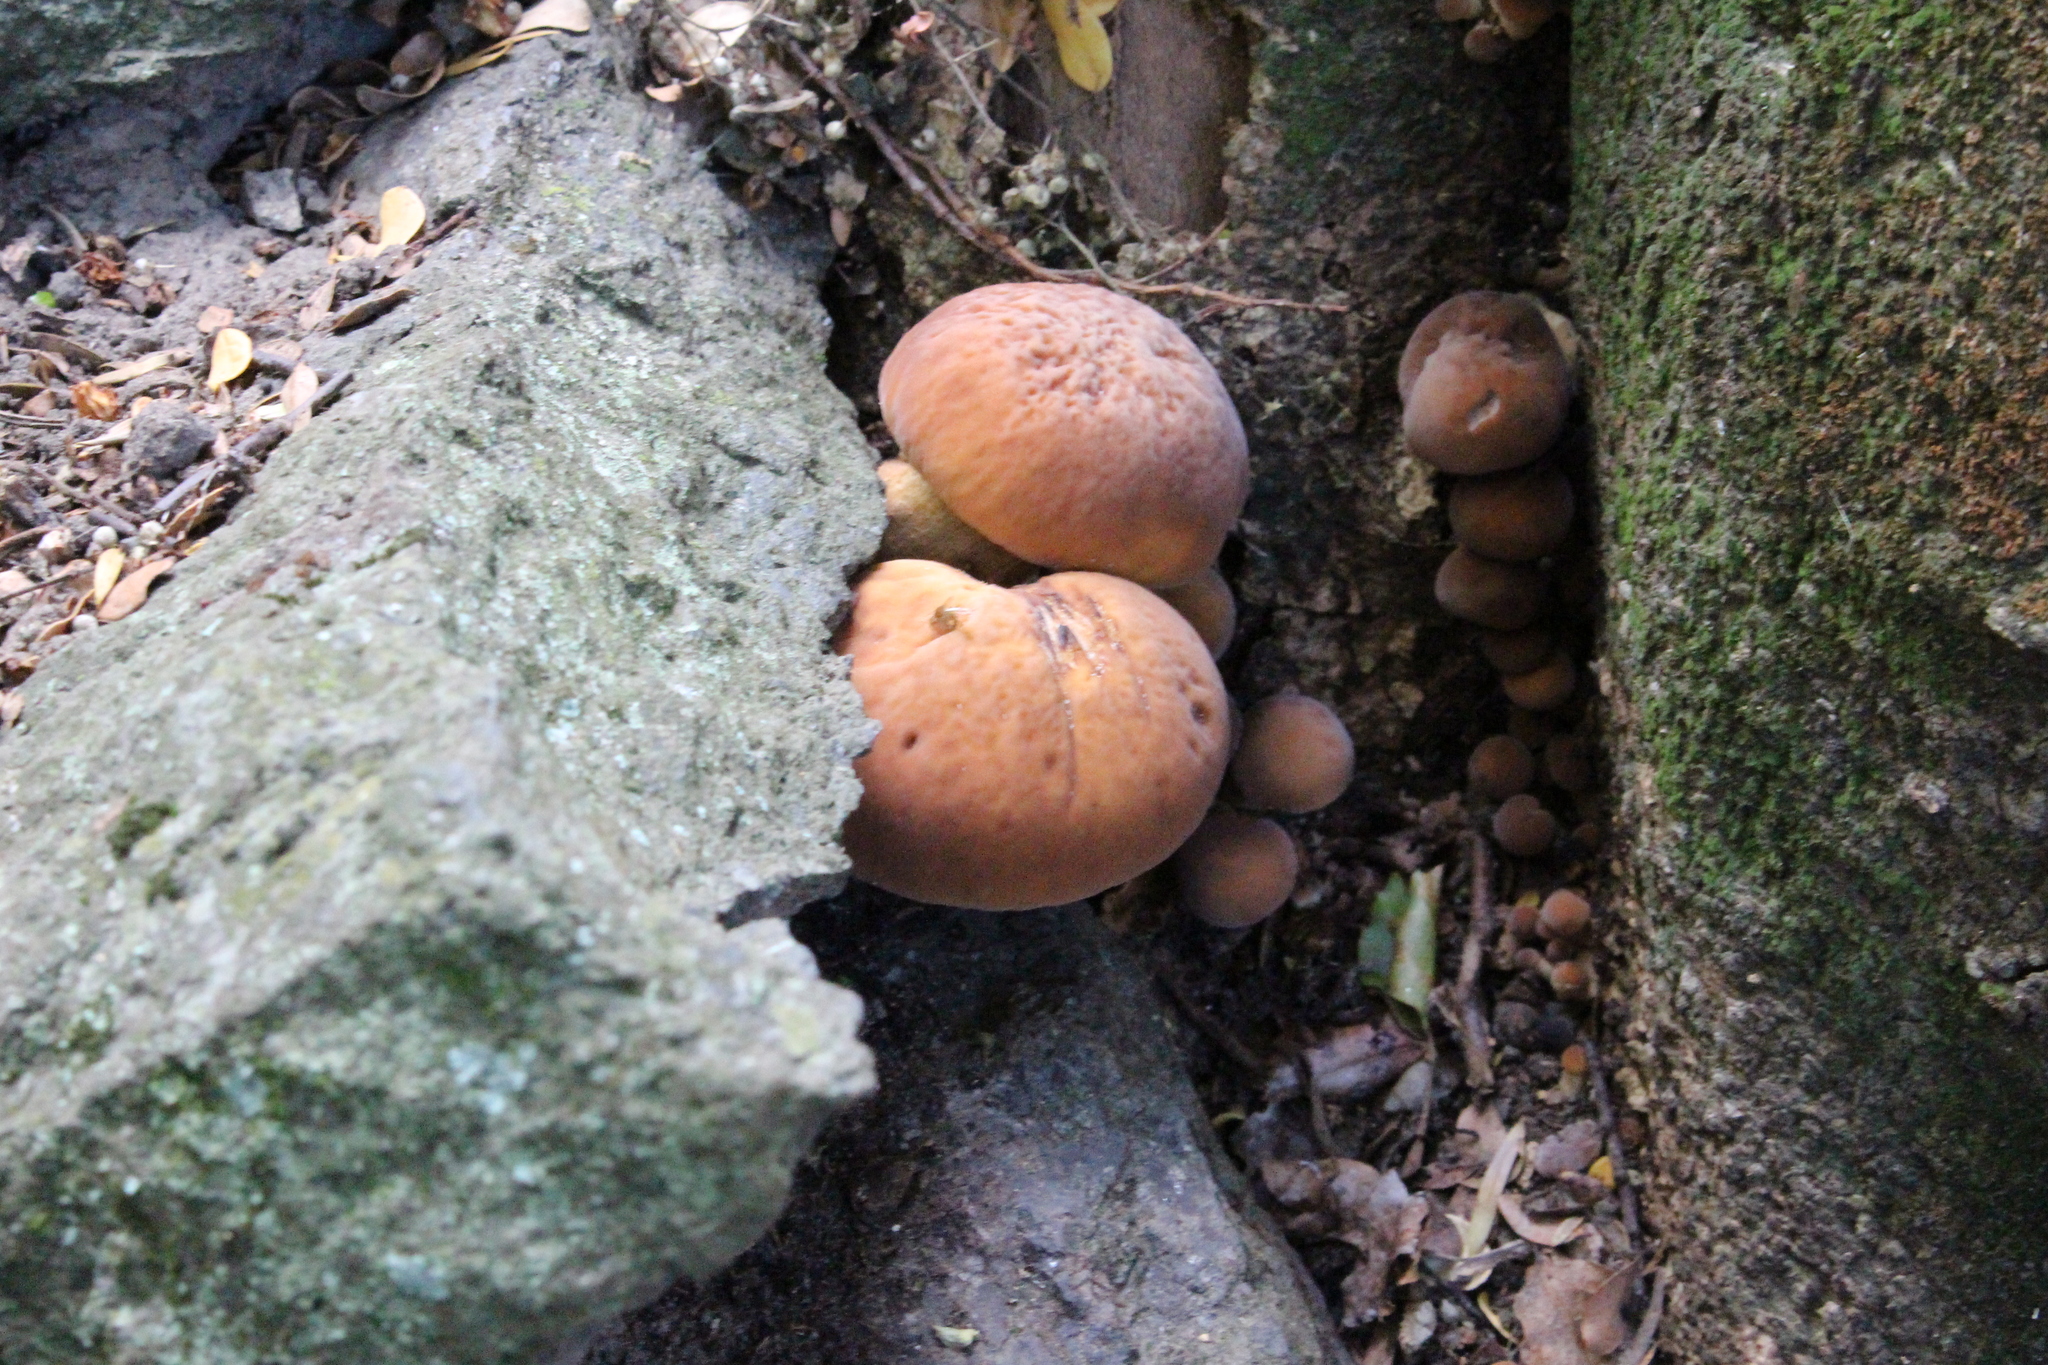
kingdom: Fungi
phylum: Basidiomycota
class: Agaricomycetes
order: Agaricales
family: Tubariaceae
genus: Cyclocybe
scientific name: Cyclocybe parasitica
